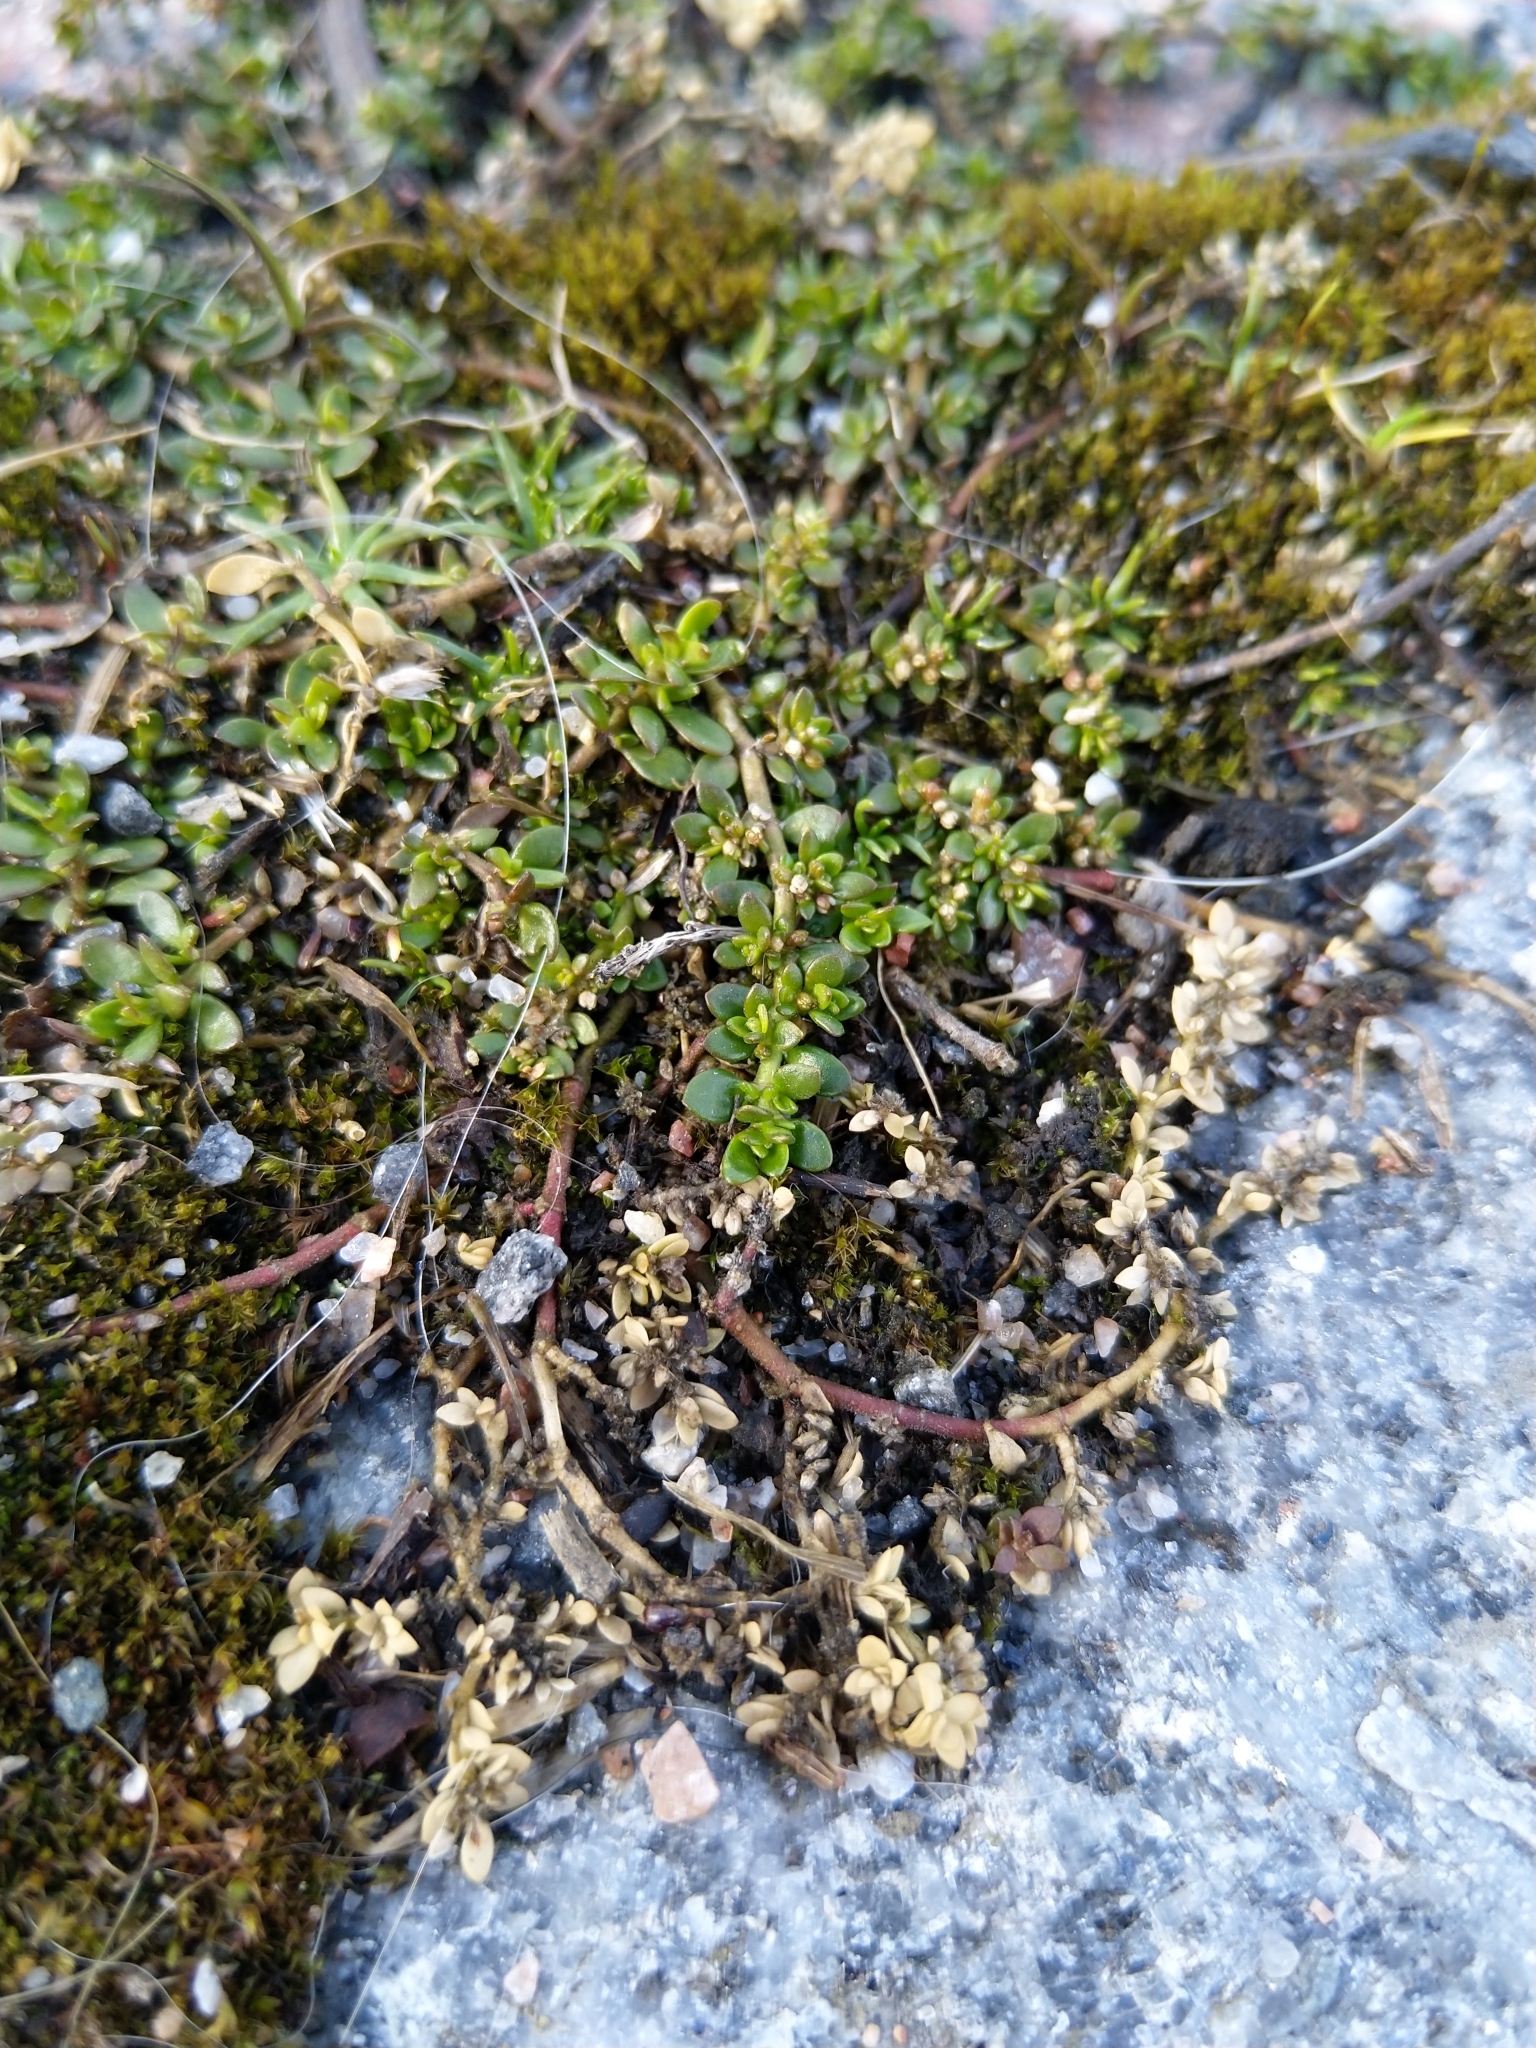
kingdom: Plantae
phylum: Tracheophyta
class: Magnoliopsida
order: Caryophyllales
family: Caryophyllaceae
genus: Herniaria
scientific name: Herniaria glabra
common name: Smooth rupturewort
